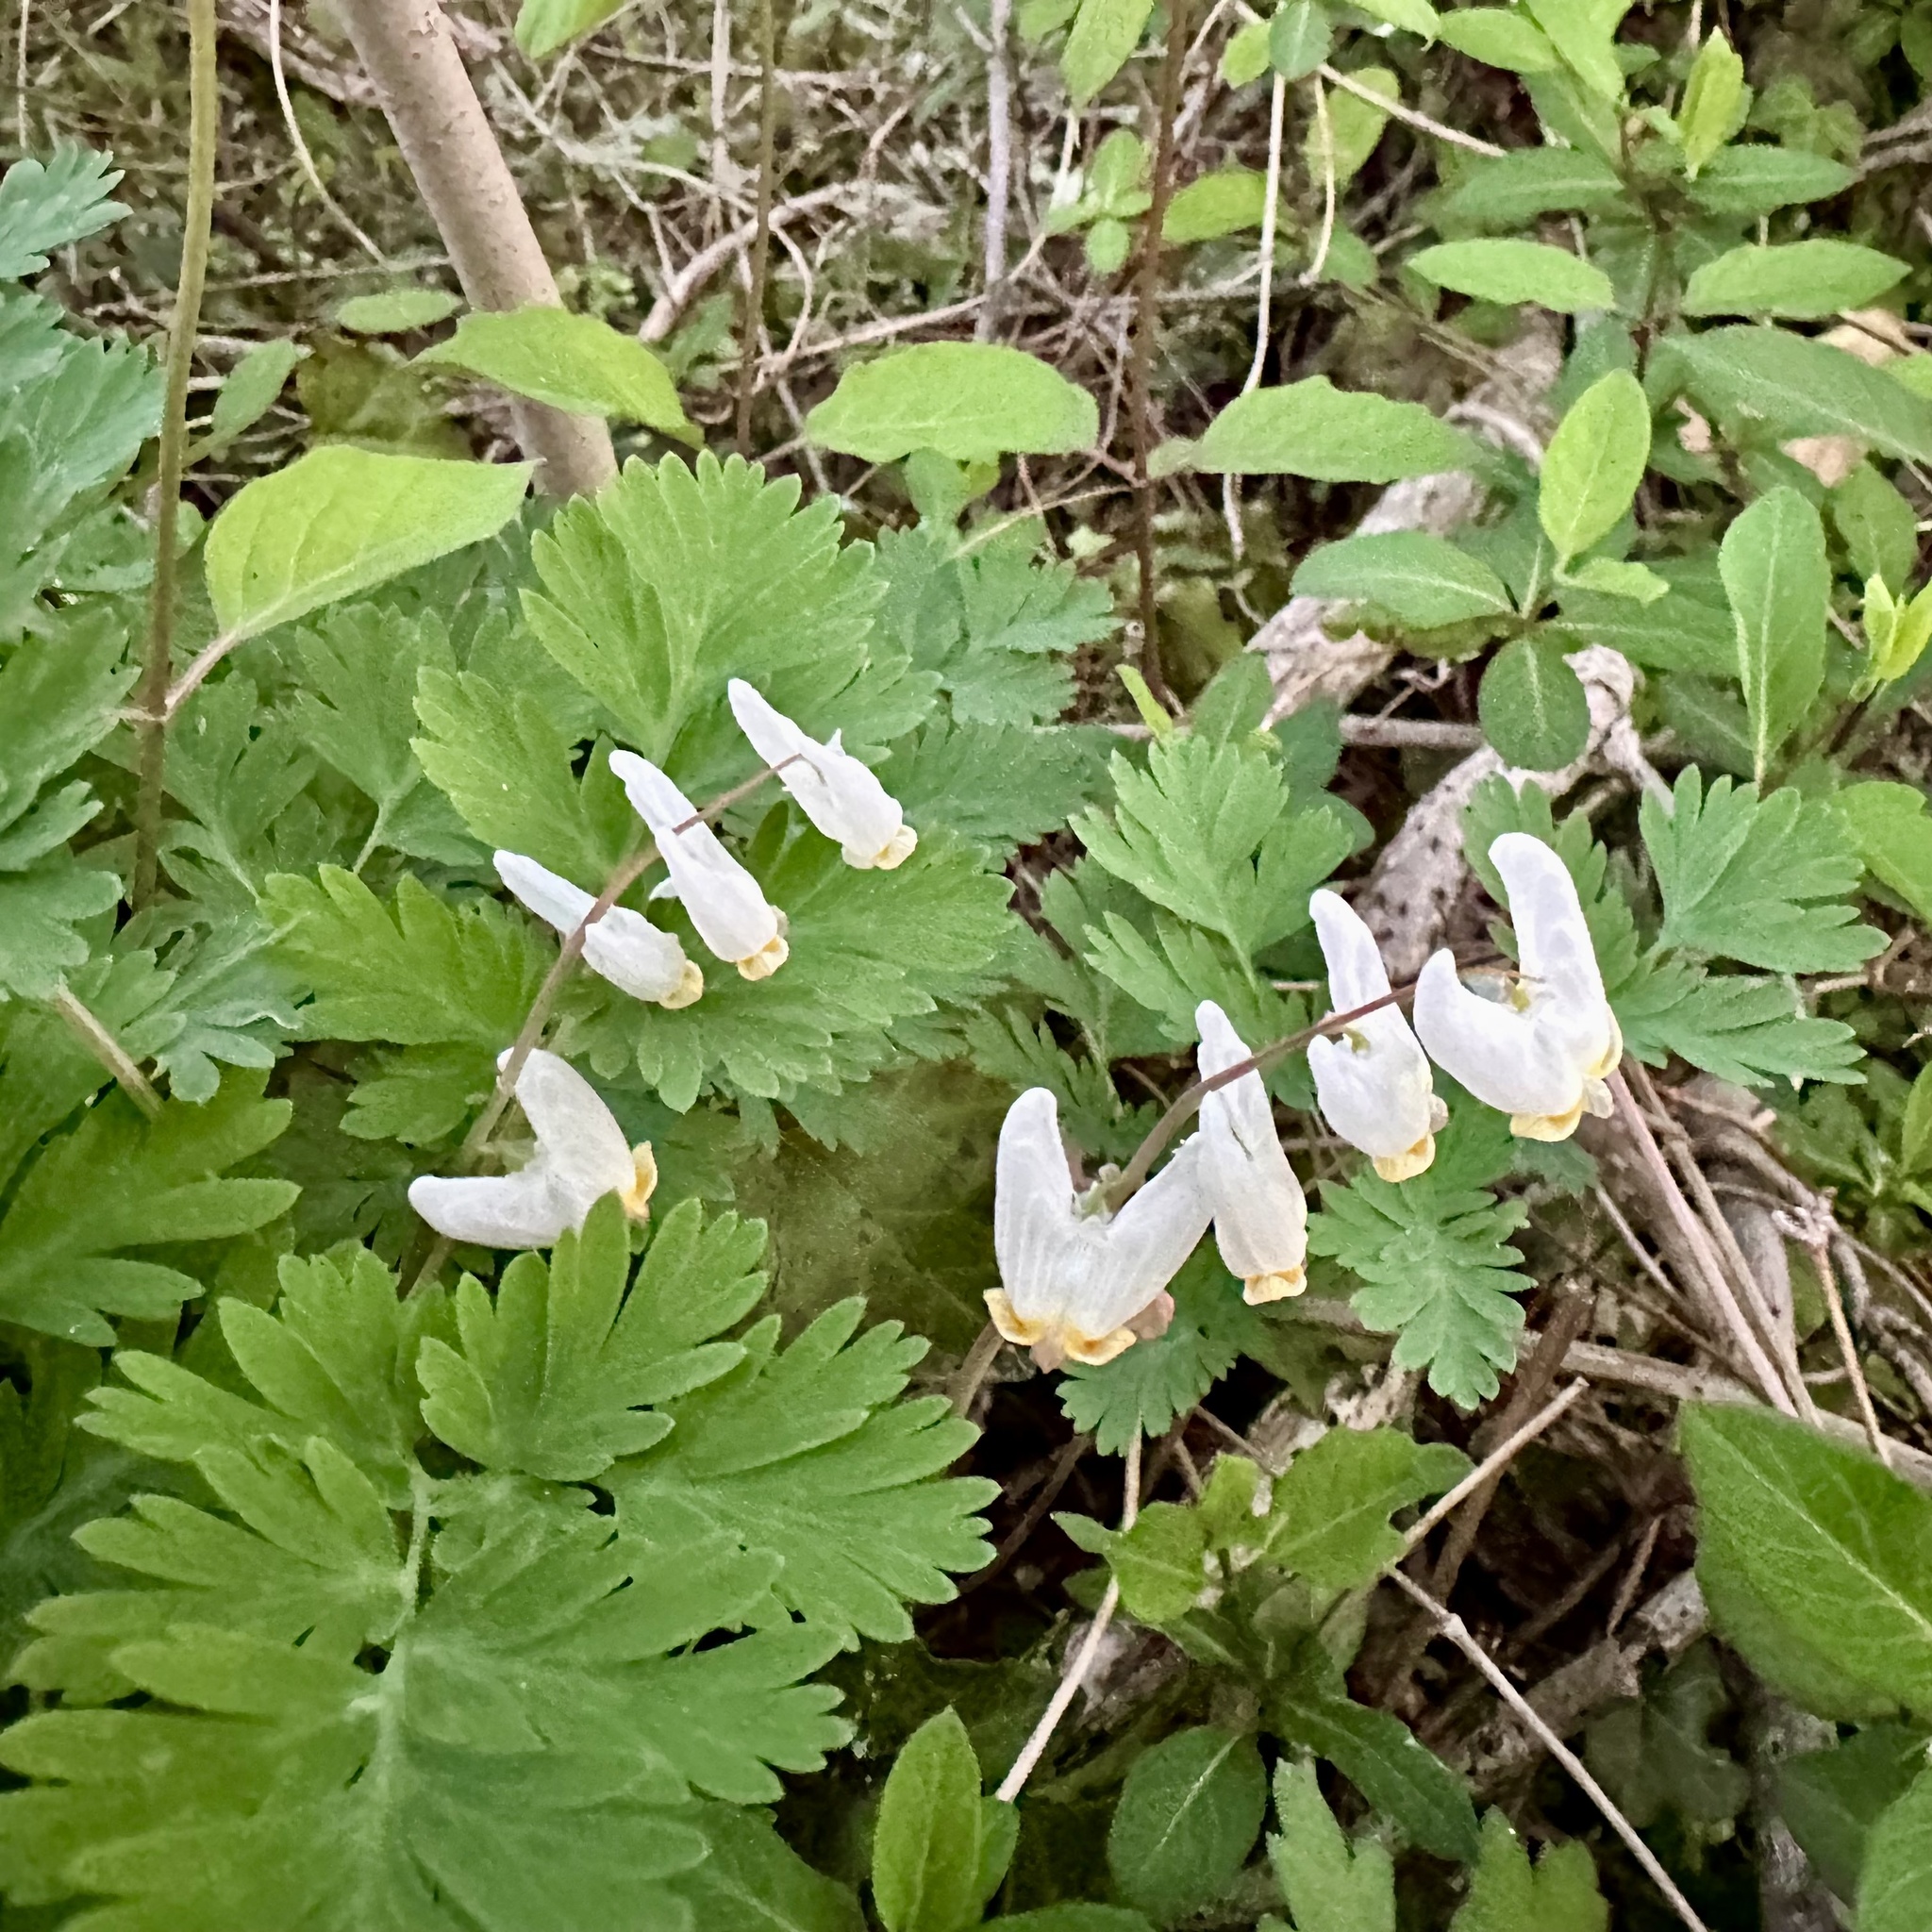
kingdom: Plantae
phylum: Tracheophyta
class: Magnoliopsida
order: Ranunculales
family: Papaveraceae
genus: Dicentra
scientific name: Dicentra cucullaria
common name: Dutchman's breeches
